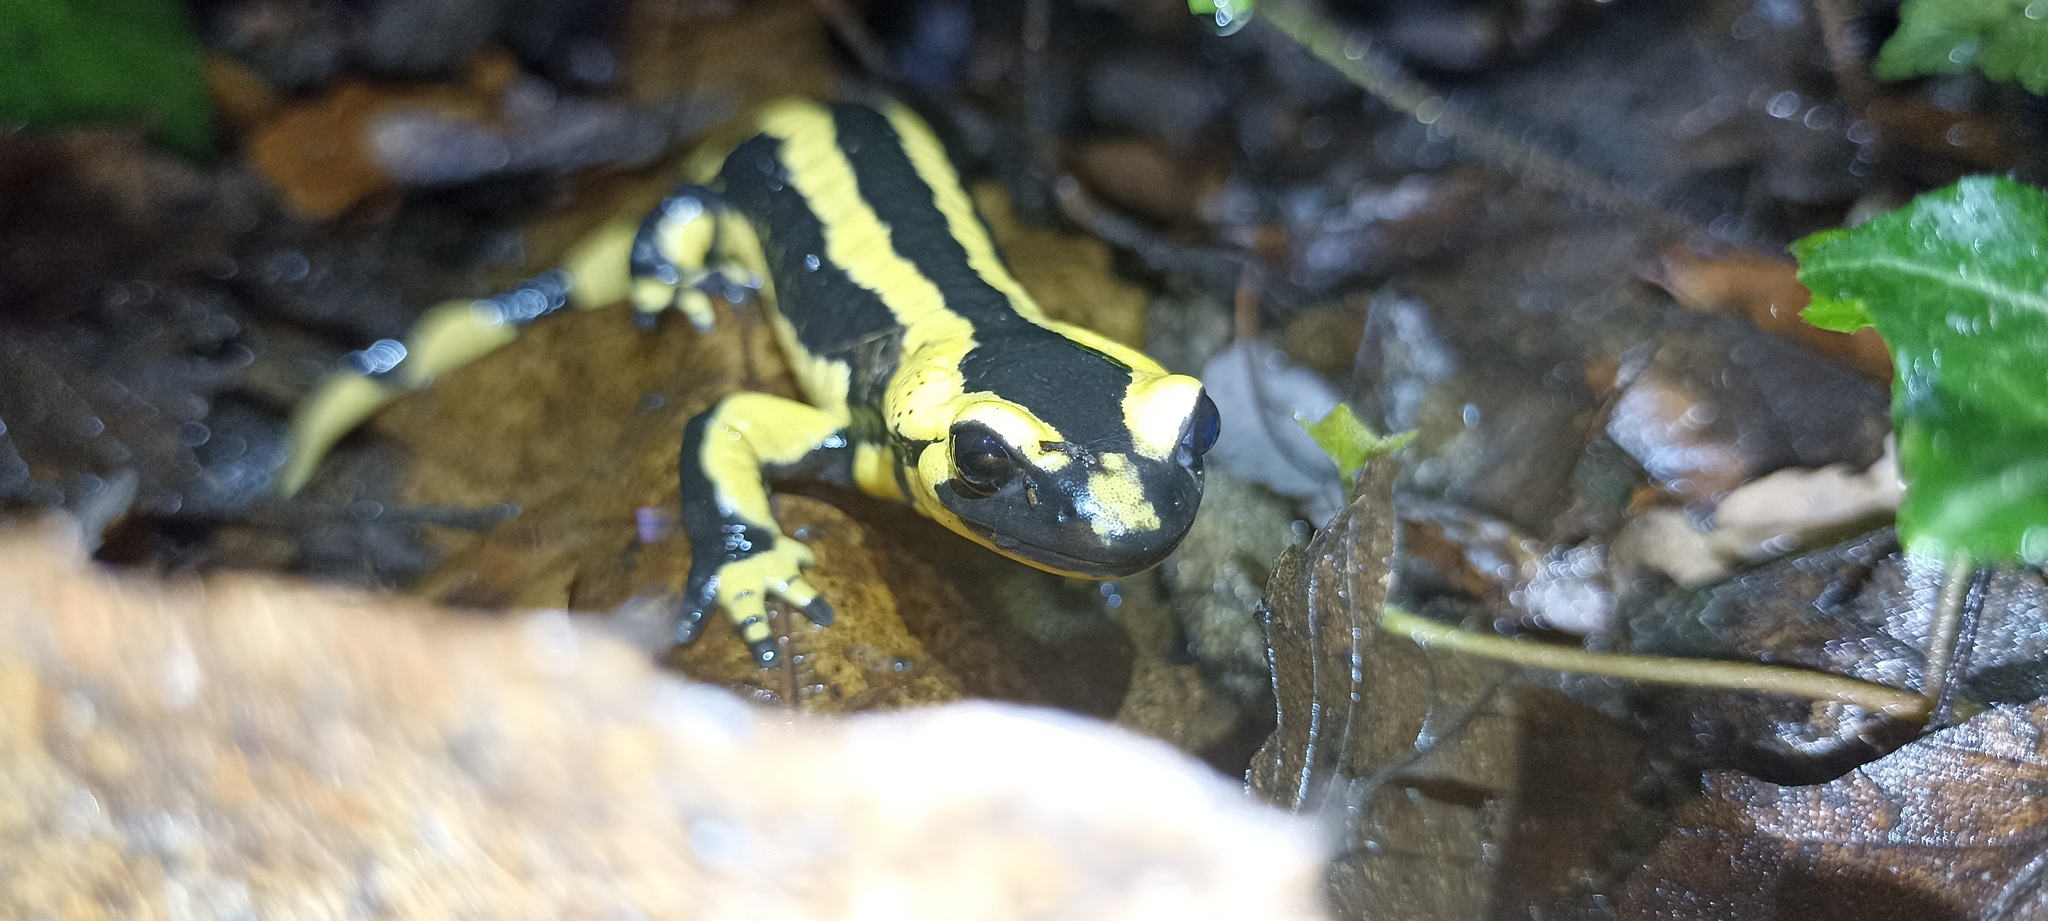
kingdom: Animalia
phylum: Chordata
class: Amphibia
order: Caudata
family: Salamandridae
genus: Salamandra
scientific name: Salamandra salamandra
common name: Fire salamander
